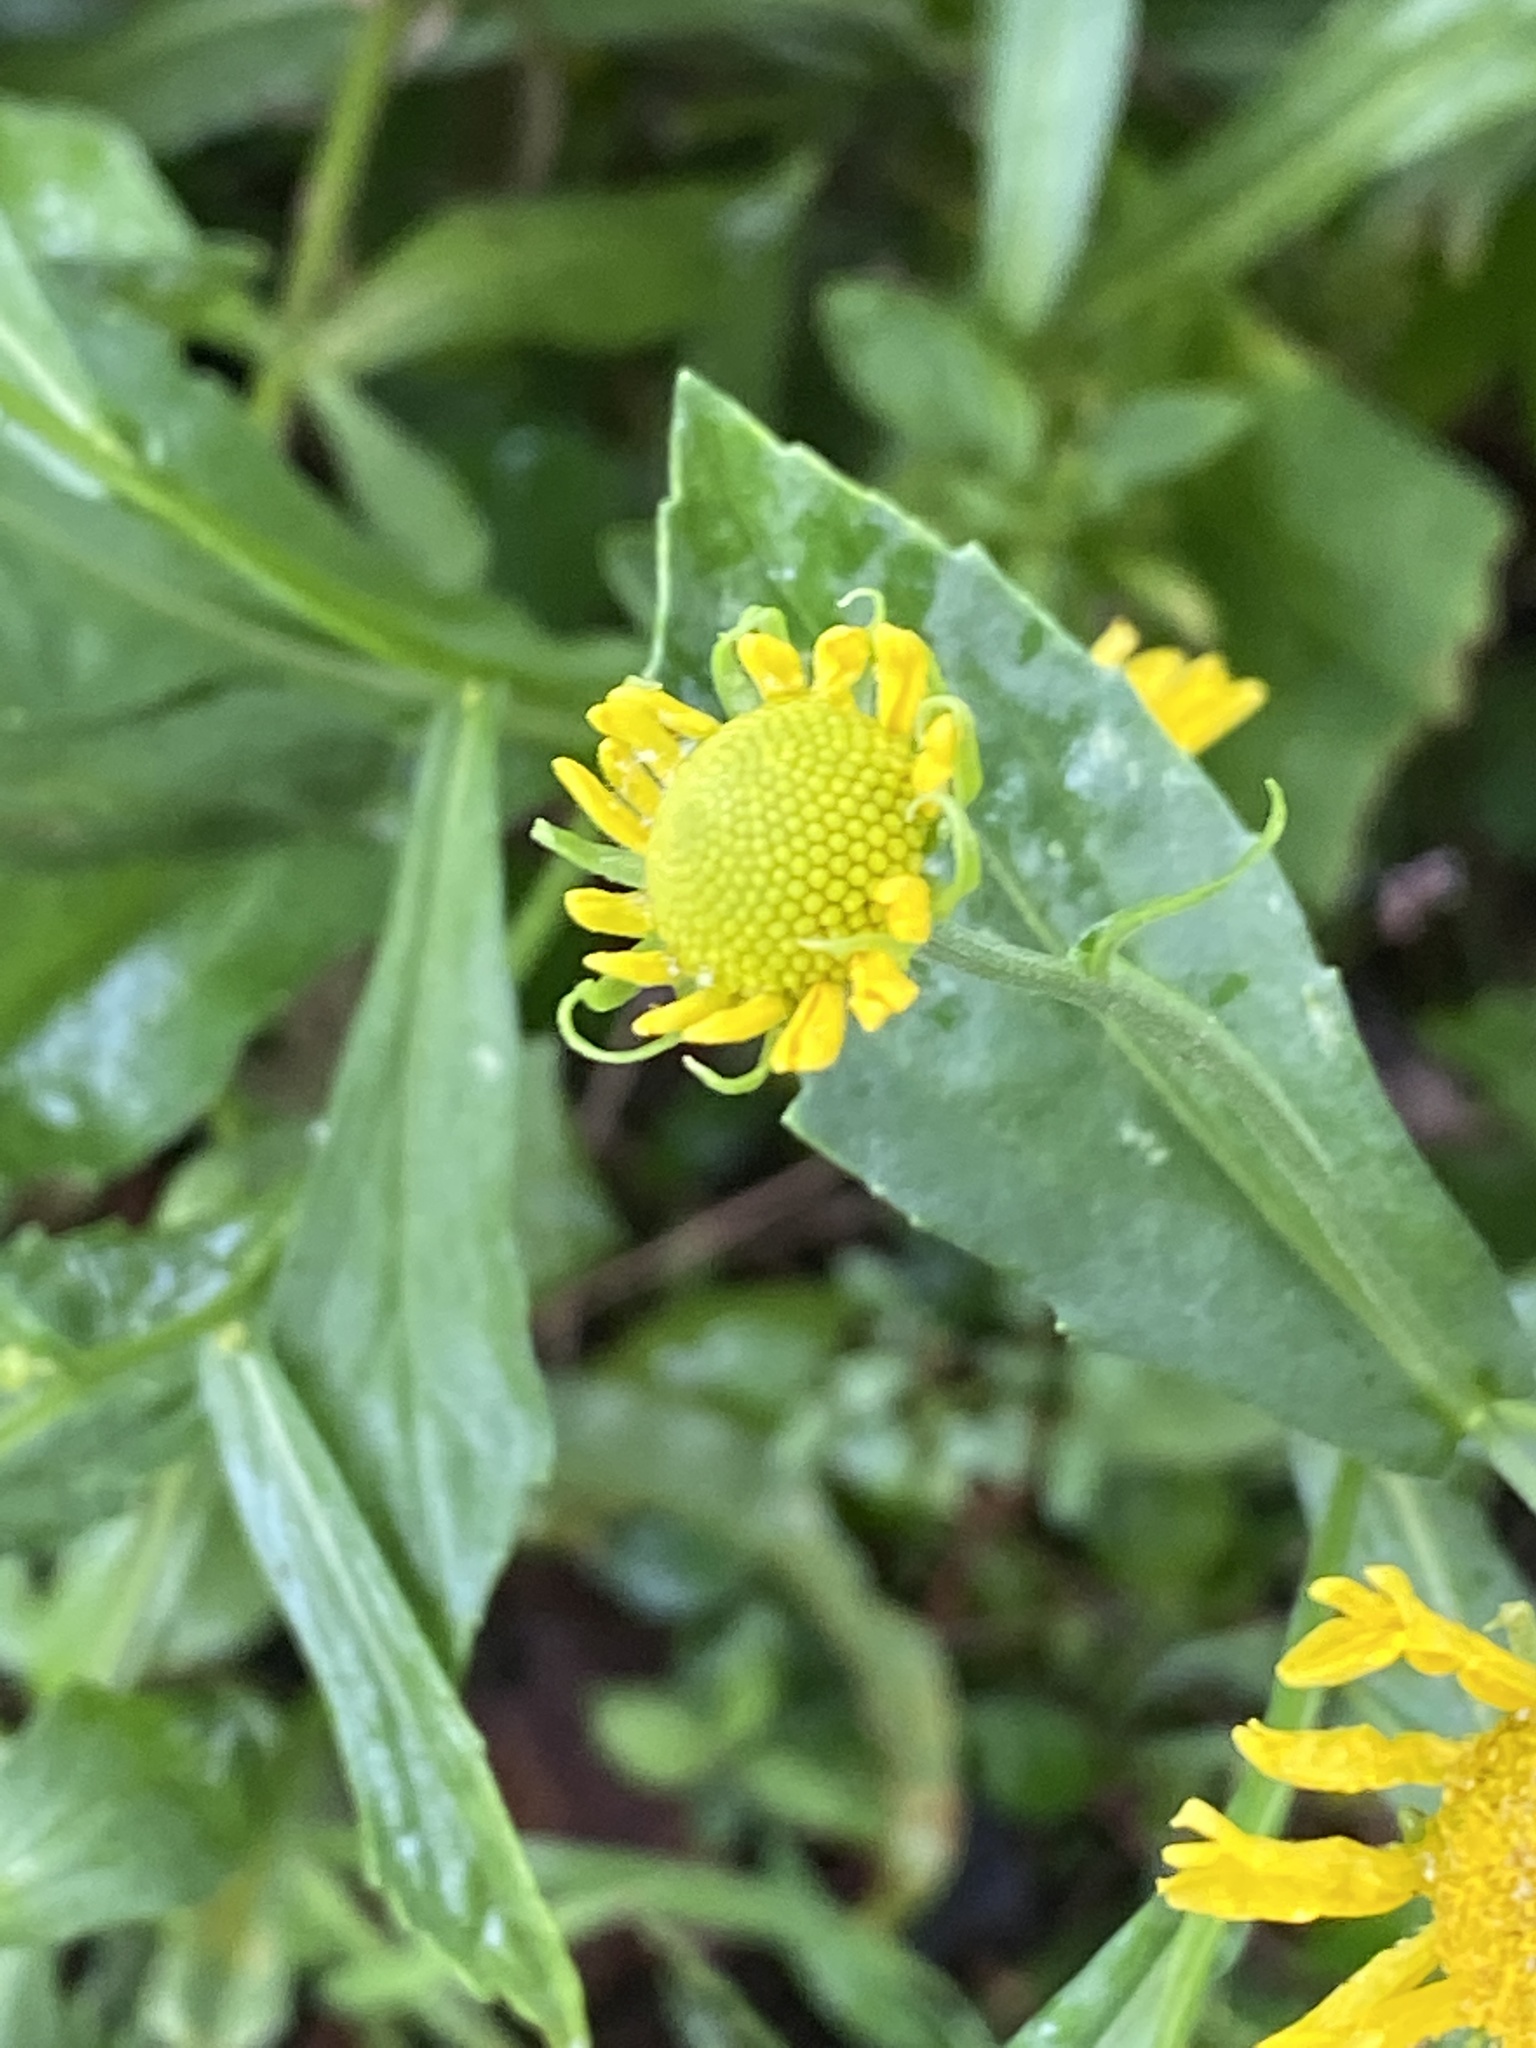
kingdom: Plantae
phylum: Tracheophyta
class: Magnoliopsida
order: Asterales
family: Asteraceae
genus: Helenium
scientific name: Helenium autumnale
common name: Sneezeweed
